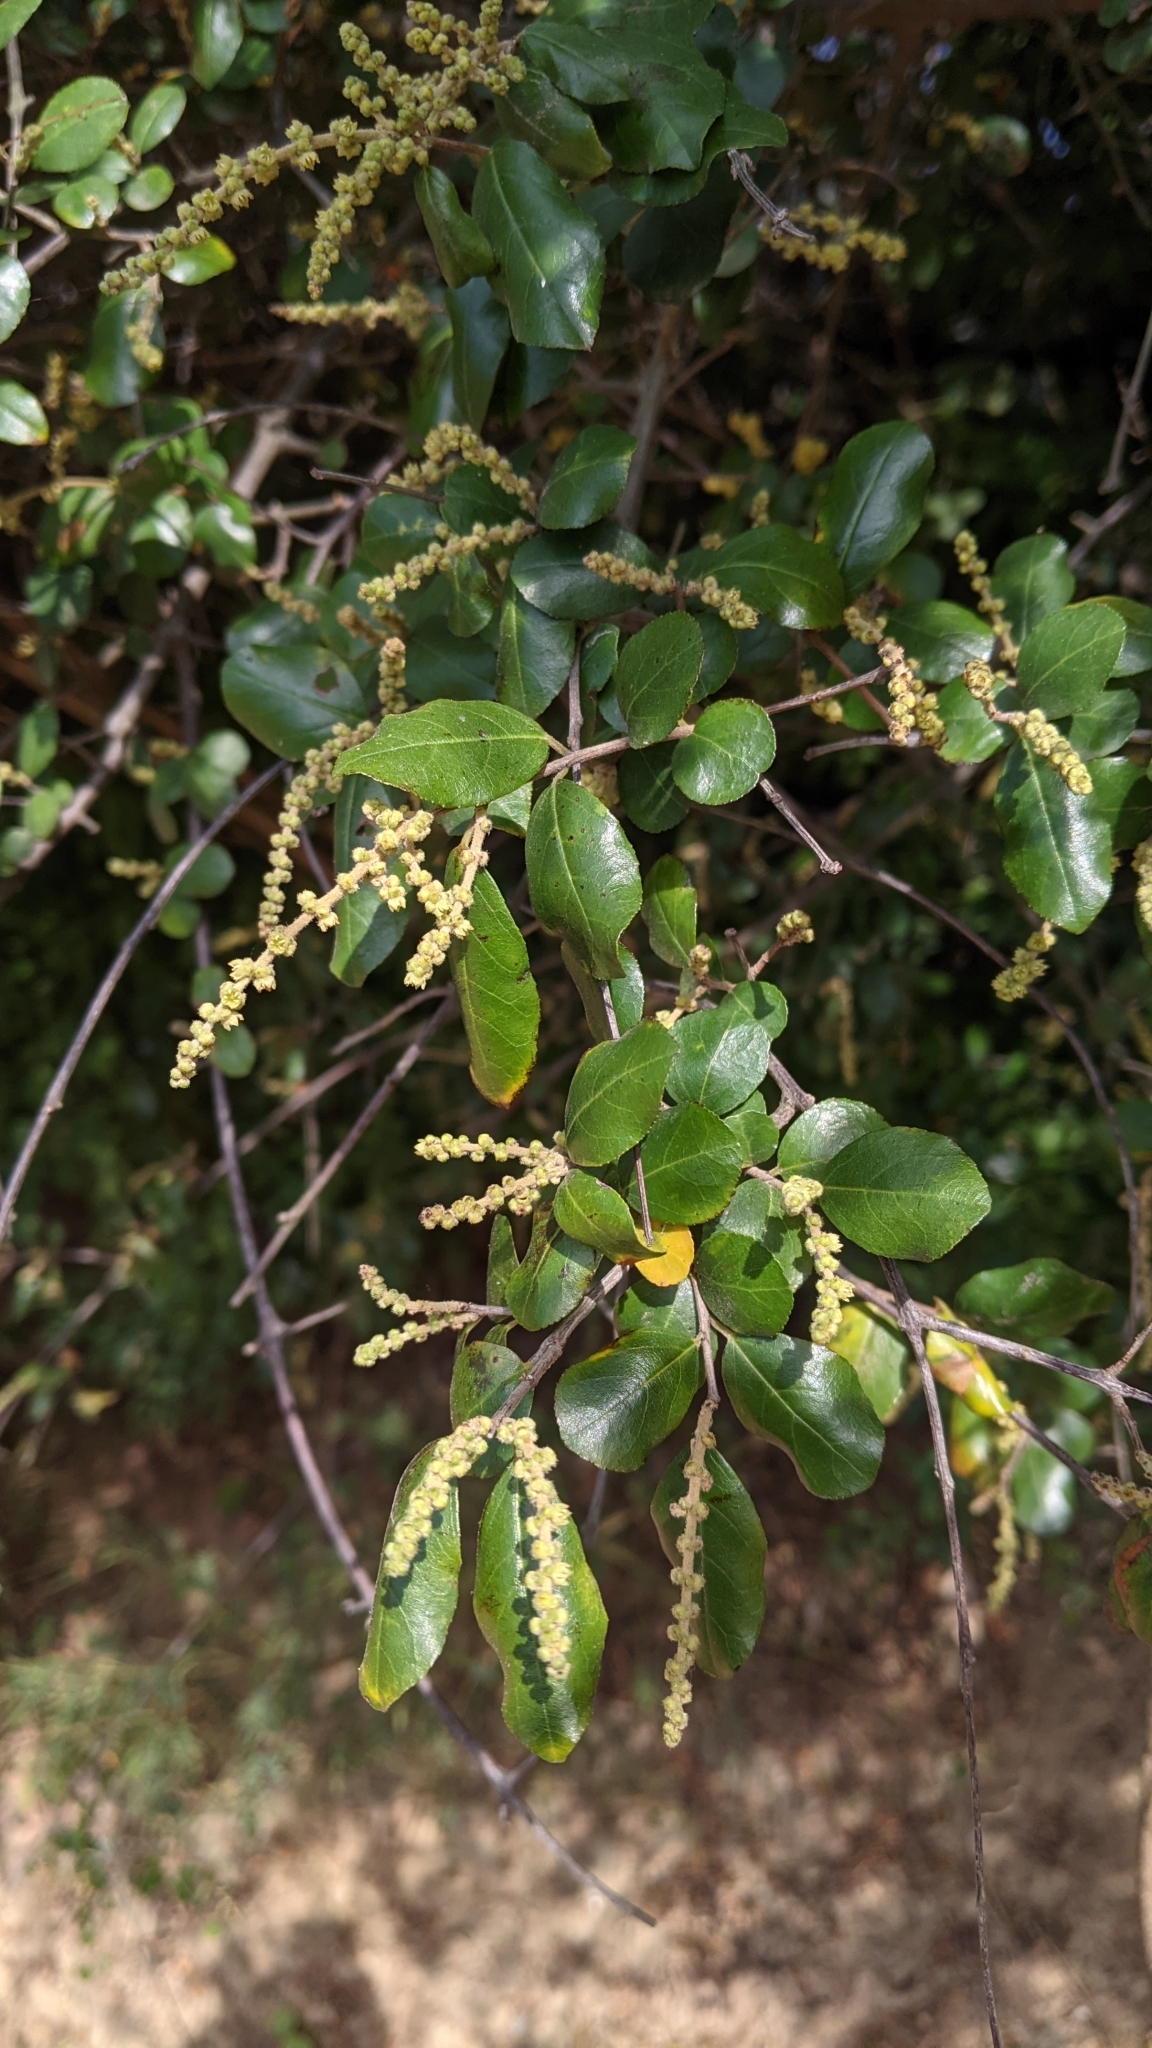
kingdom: Plantae
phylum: Tracheophyta
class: Magnoliopsida
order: Rosales
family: Rhamnaceae
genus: Sageretia
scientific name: Sageretia thea
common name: Pauper's-tea
